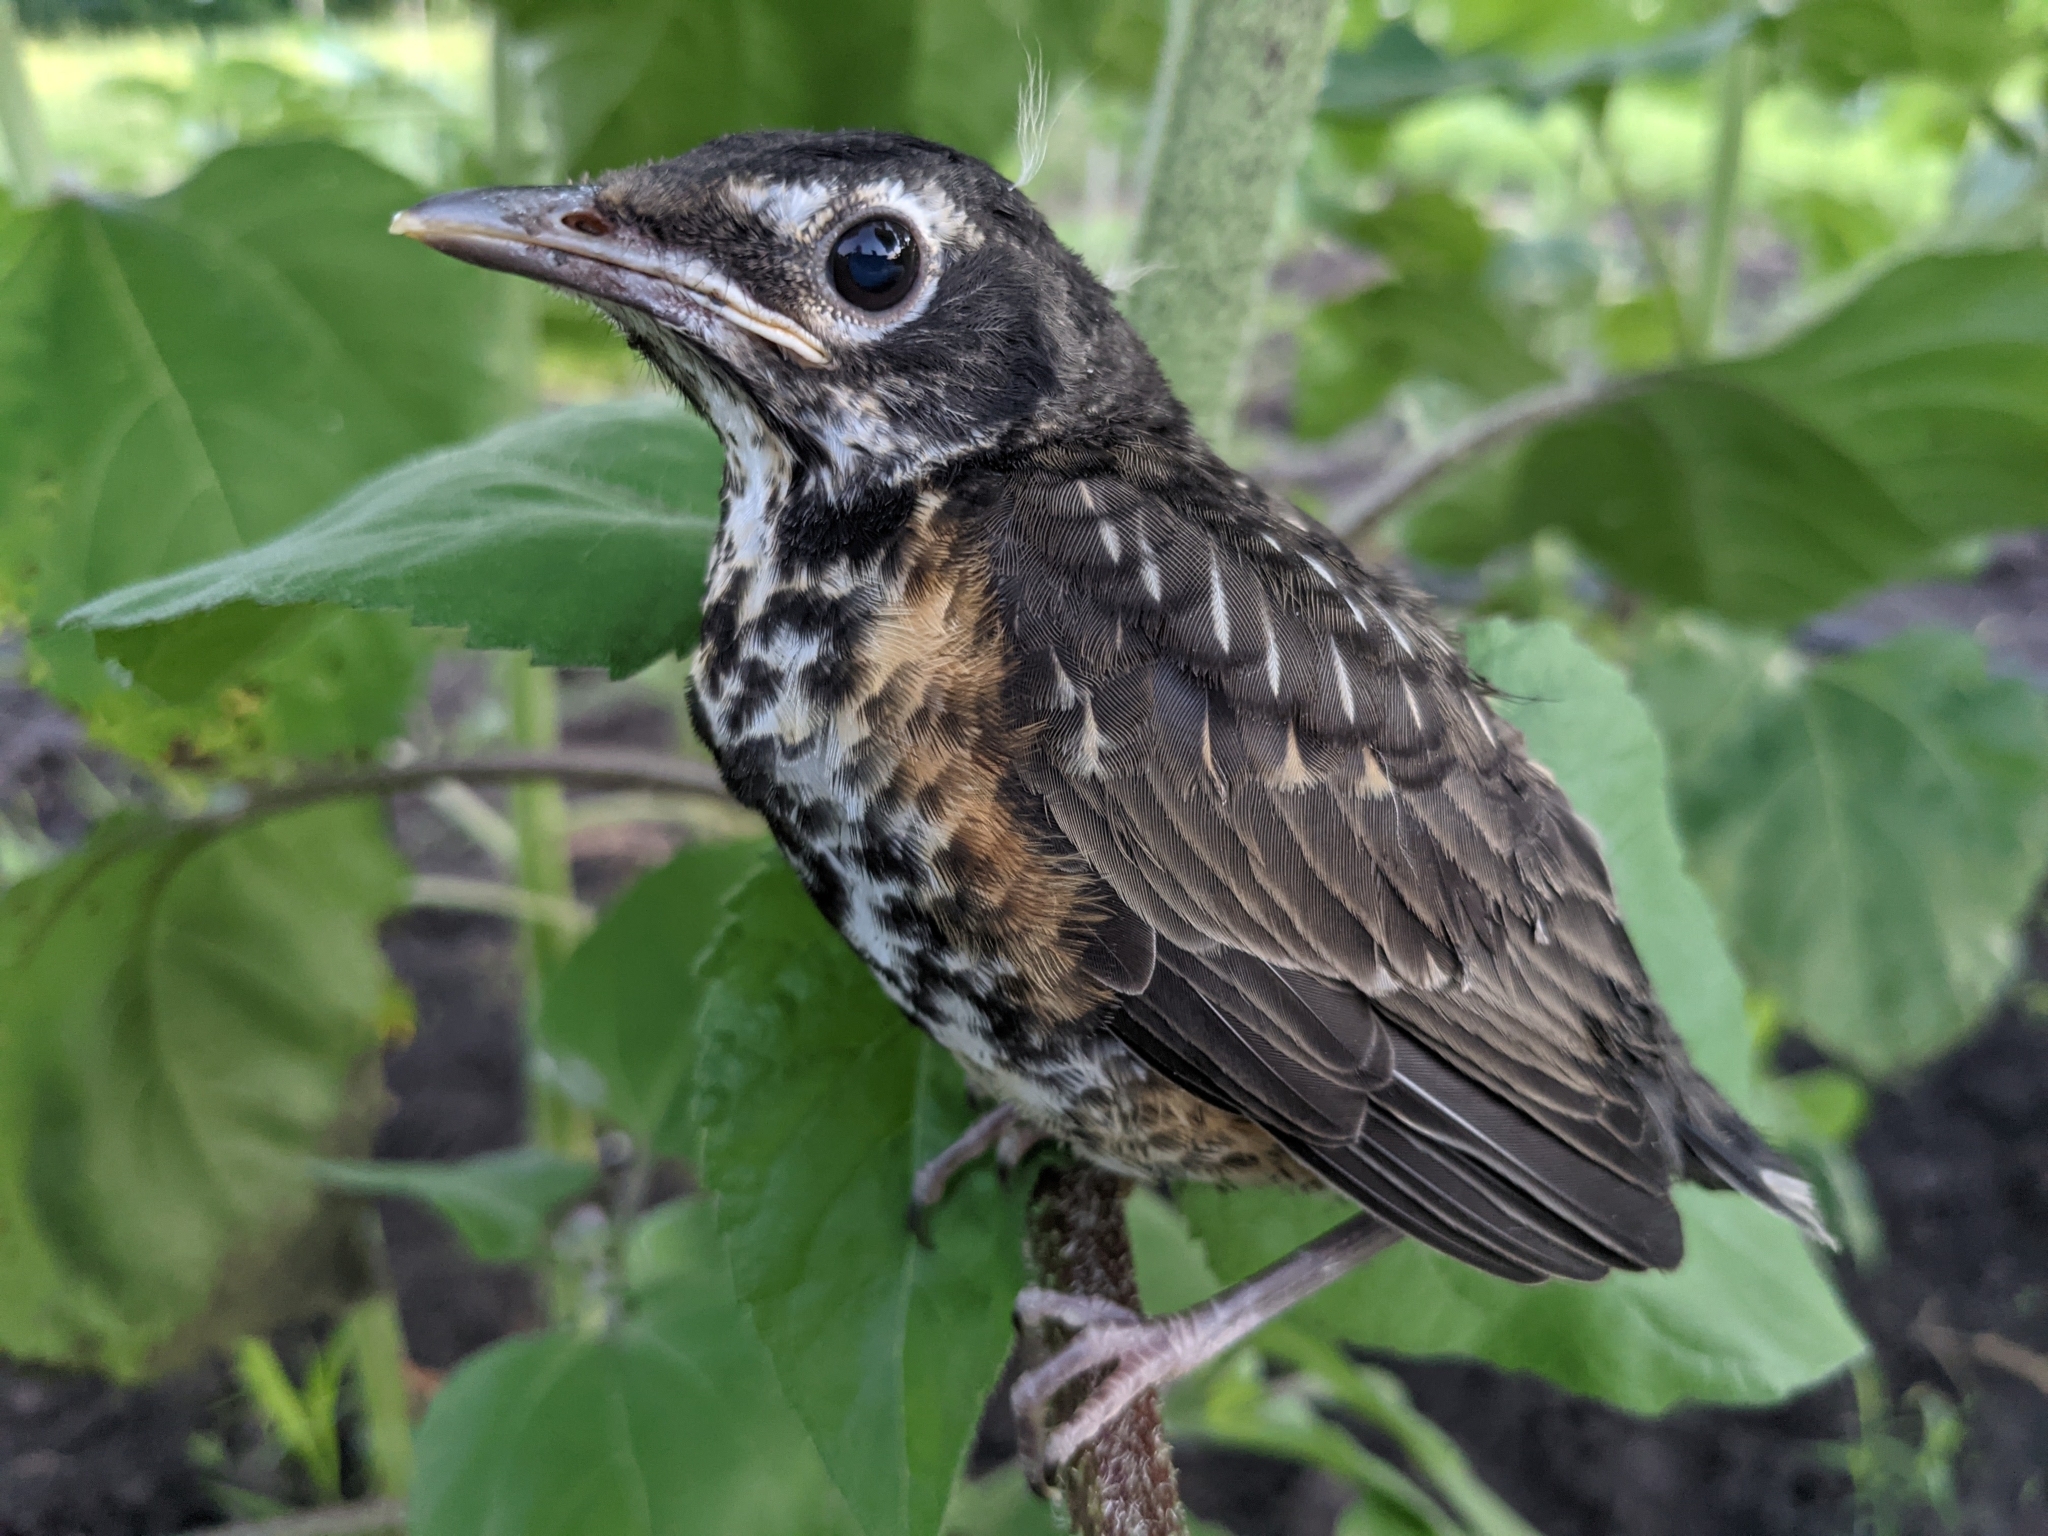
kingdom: Animalia
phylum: Chordata
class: Aves
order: Passeriformes
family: Turdidae
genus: Turdus
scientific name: Turdus migratorius
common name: American robin
